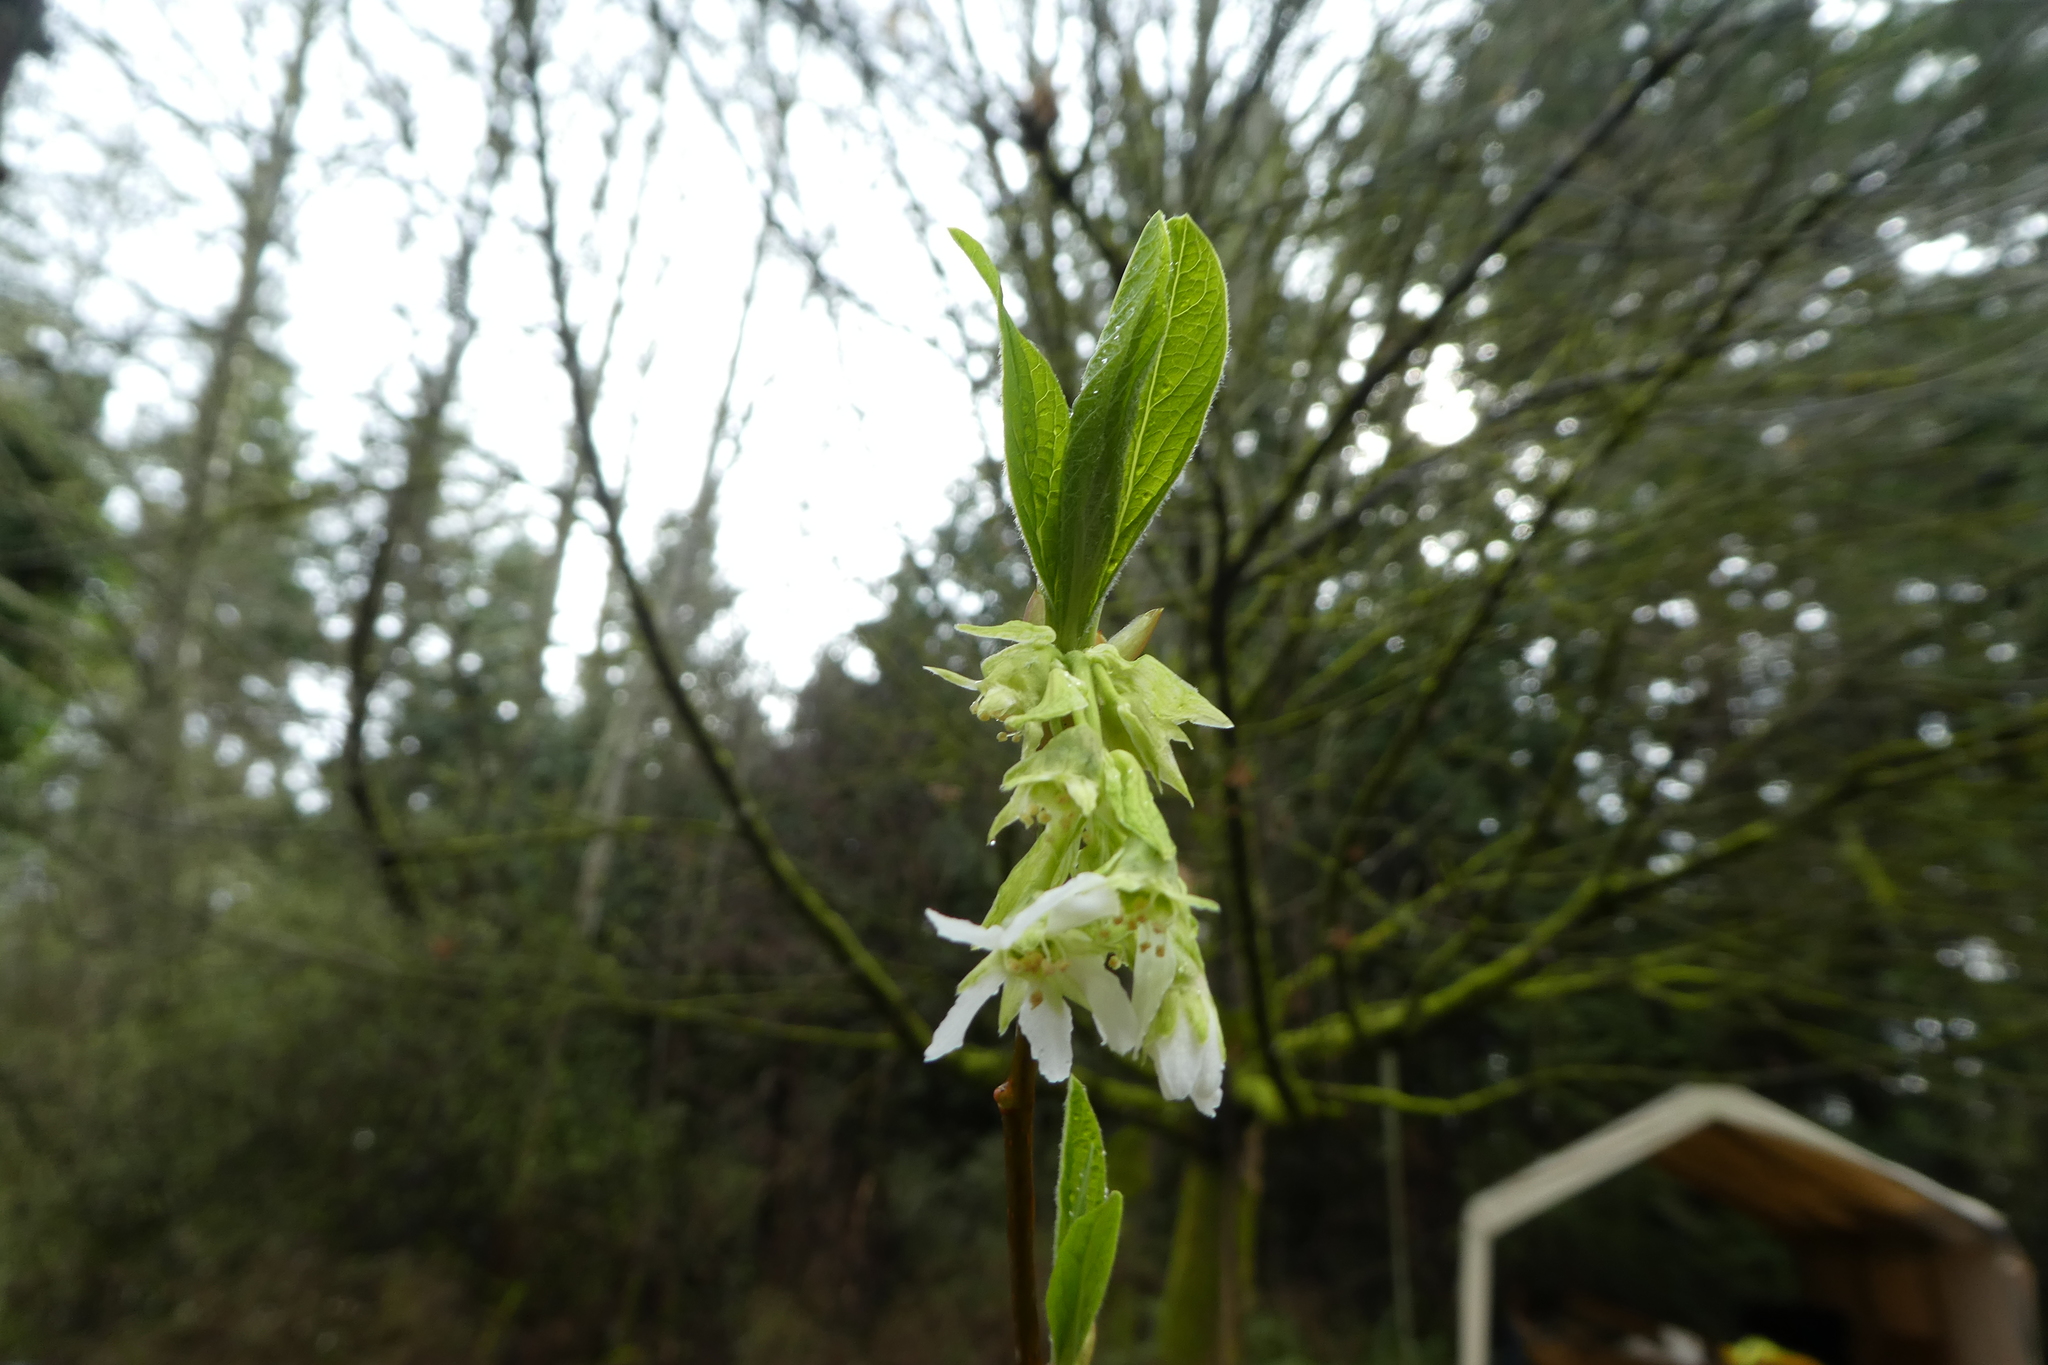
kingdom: Plantae
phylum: Tracheophyta
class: Magnoliopsida
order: Rosales
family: Rosaceae
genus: Oemleria
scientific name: Oemleria cerasiformis
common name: Osoberry
